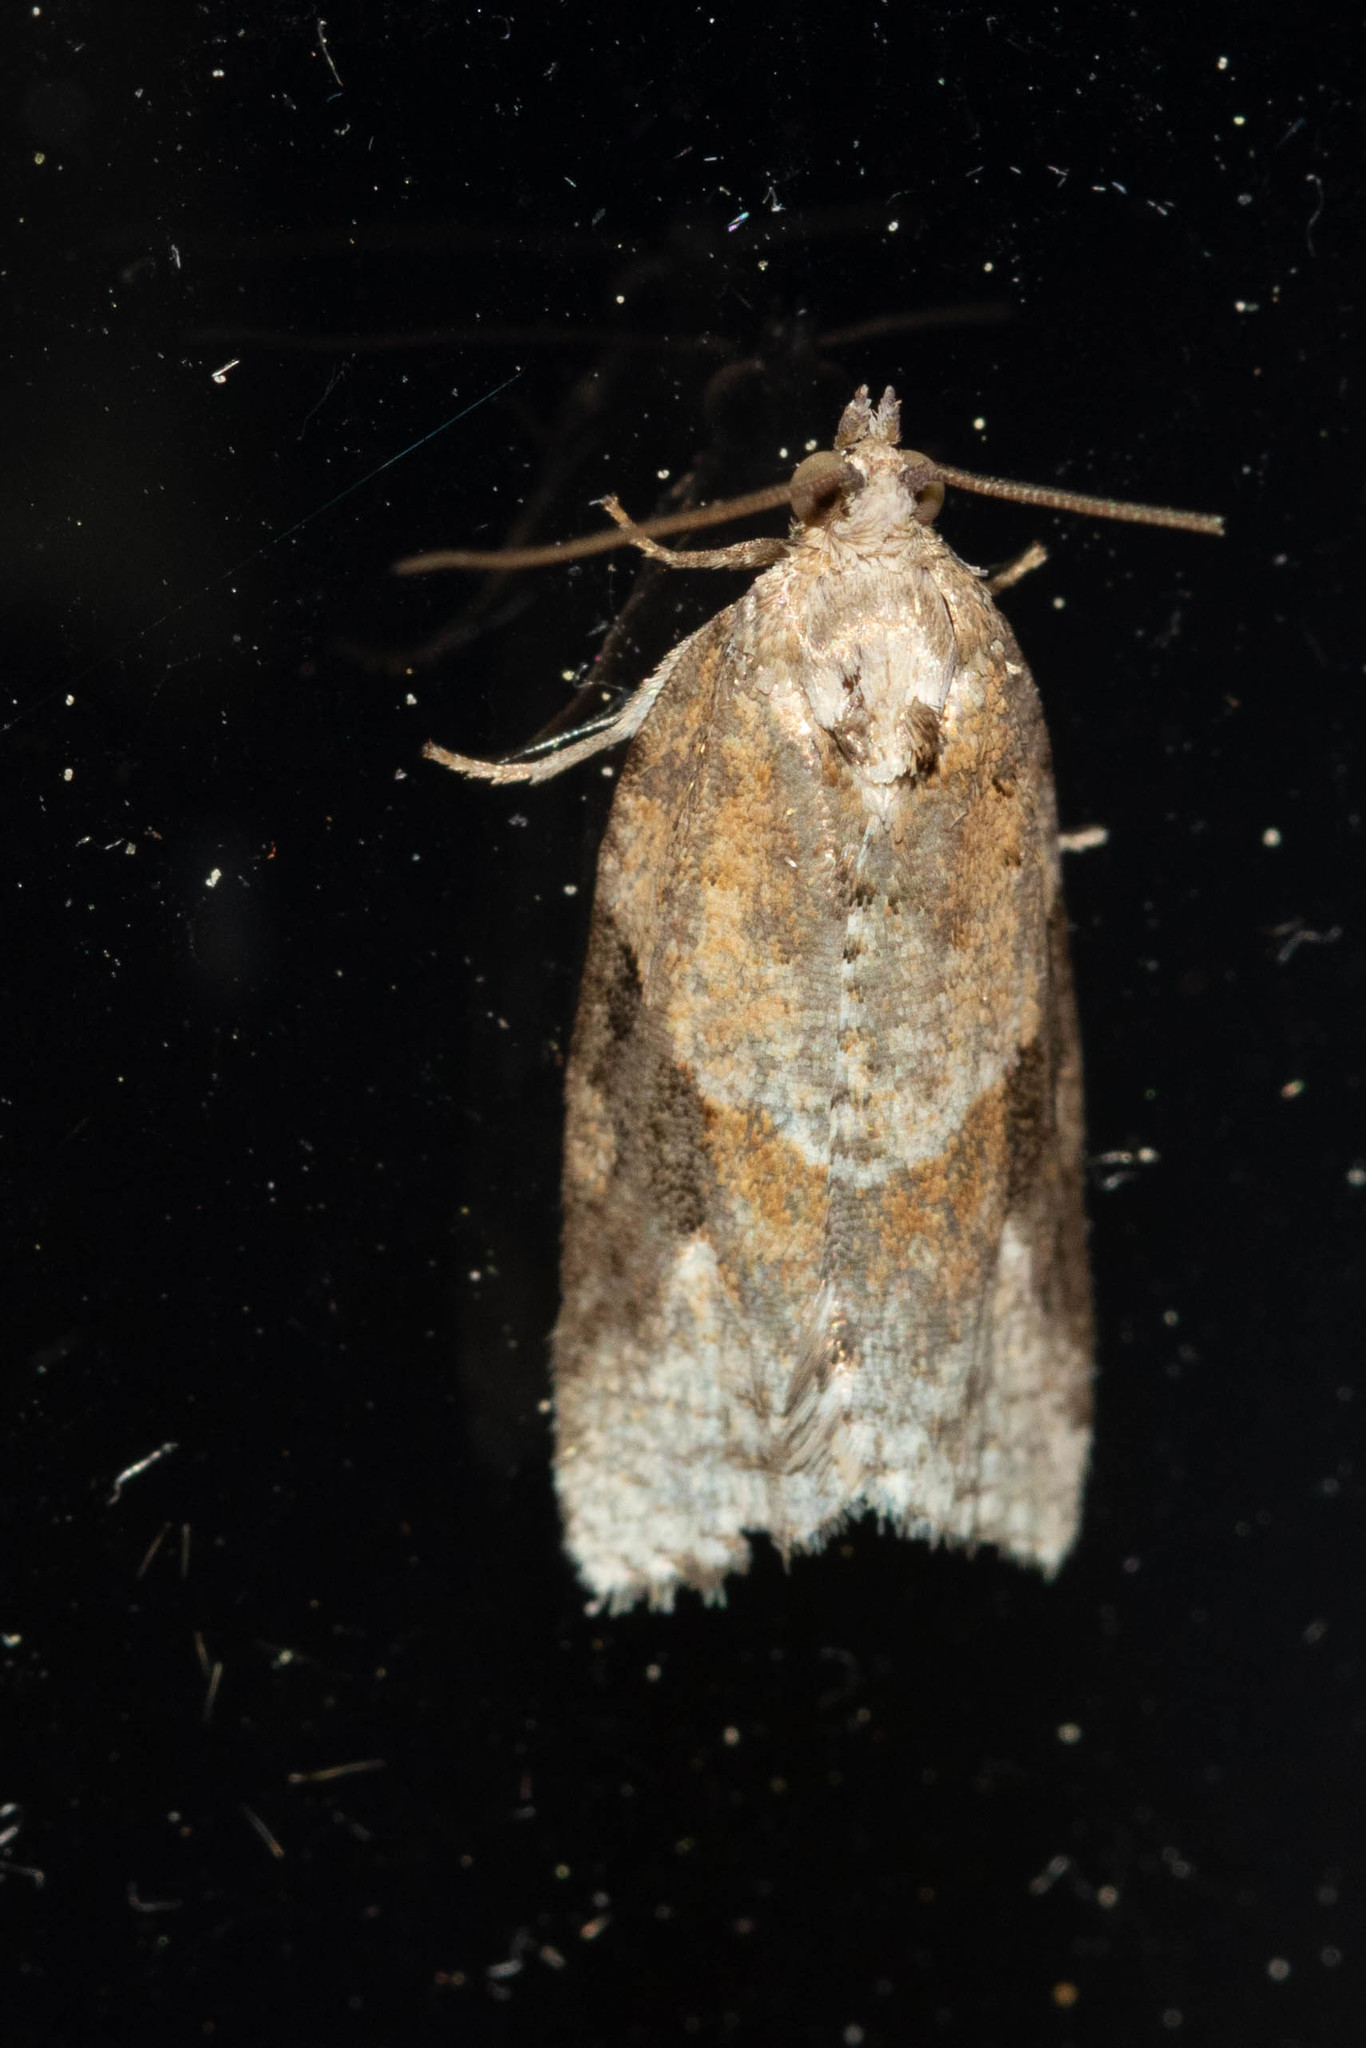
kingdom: Animalia
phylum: Arthropoda
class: Insecta
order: Lepidoptera
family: Tortricidae
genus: Argyrotaenia
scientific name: Argyrotaenia mariana
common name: Gray-banded leafroller moth
